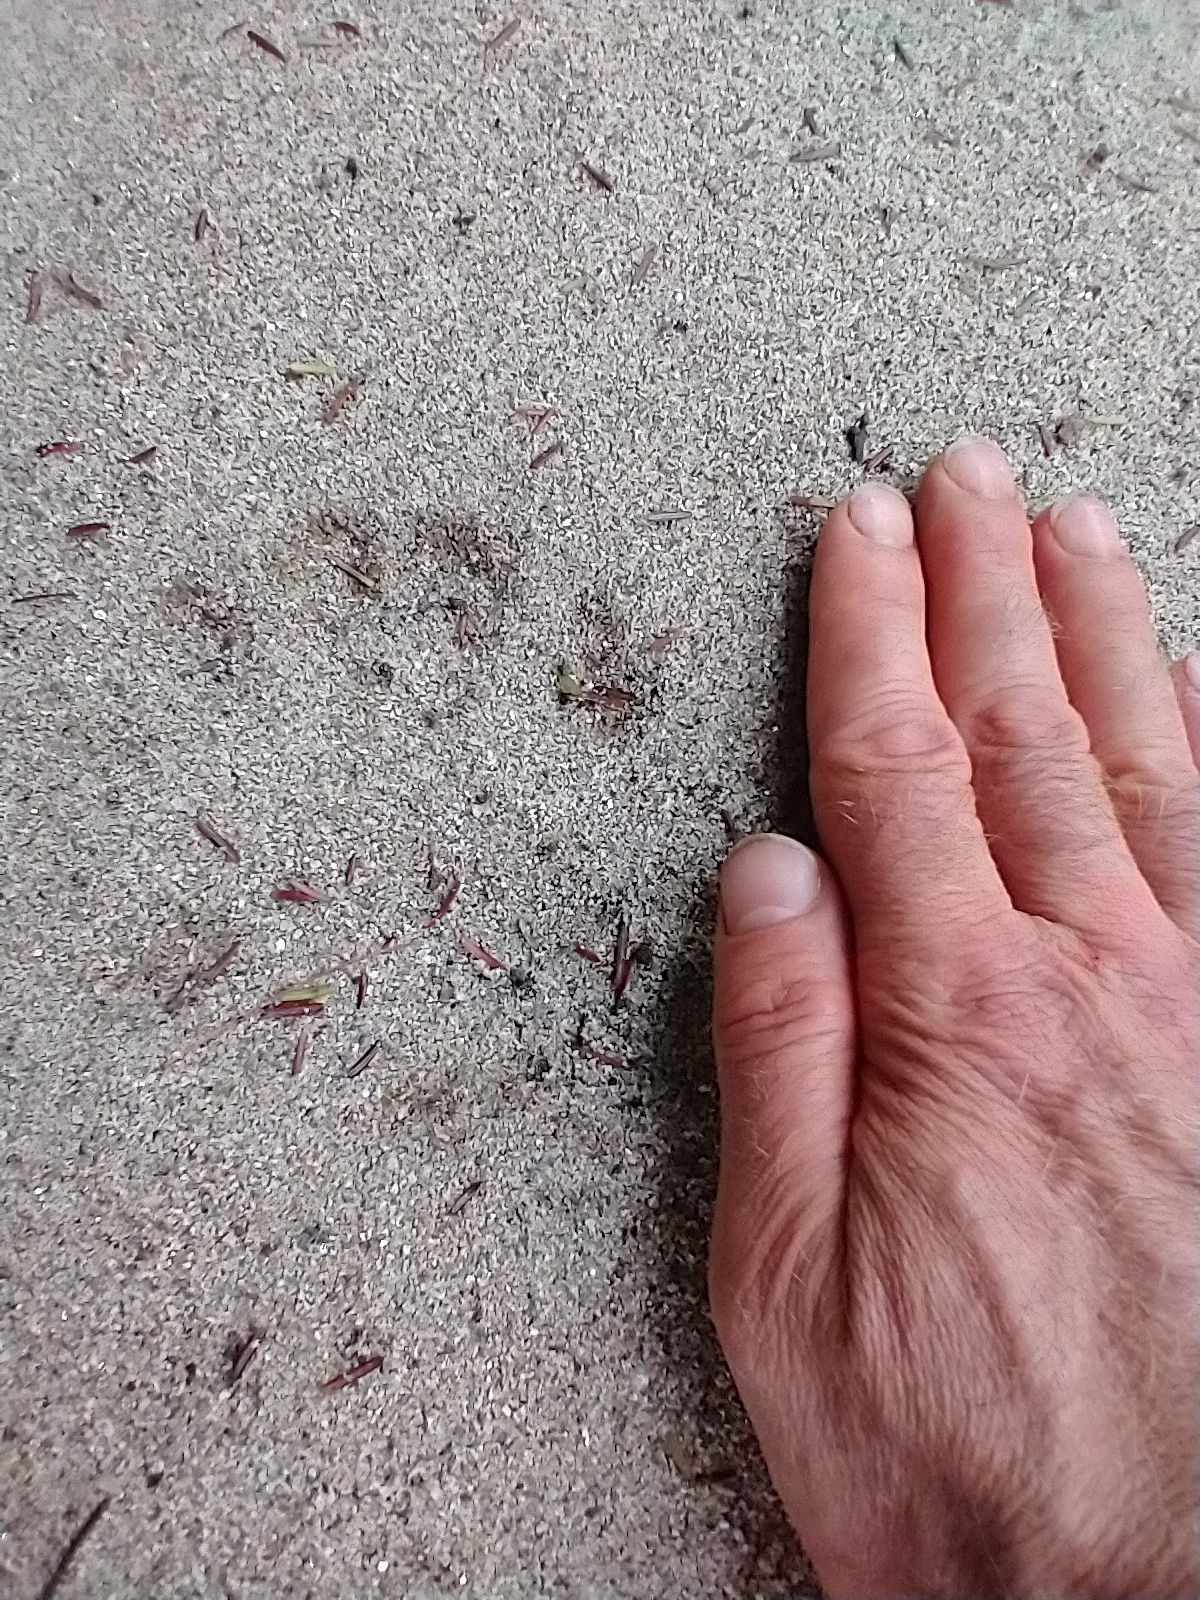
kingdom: Animalia
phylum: Chordata
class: Mammalia
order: Carnivora
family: Ursidae
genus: Ursus
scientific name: Ursus americanus
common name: American black bear
